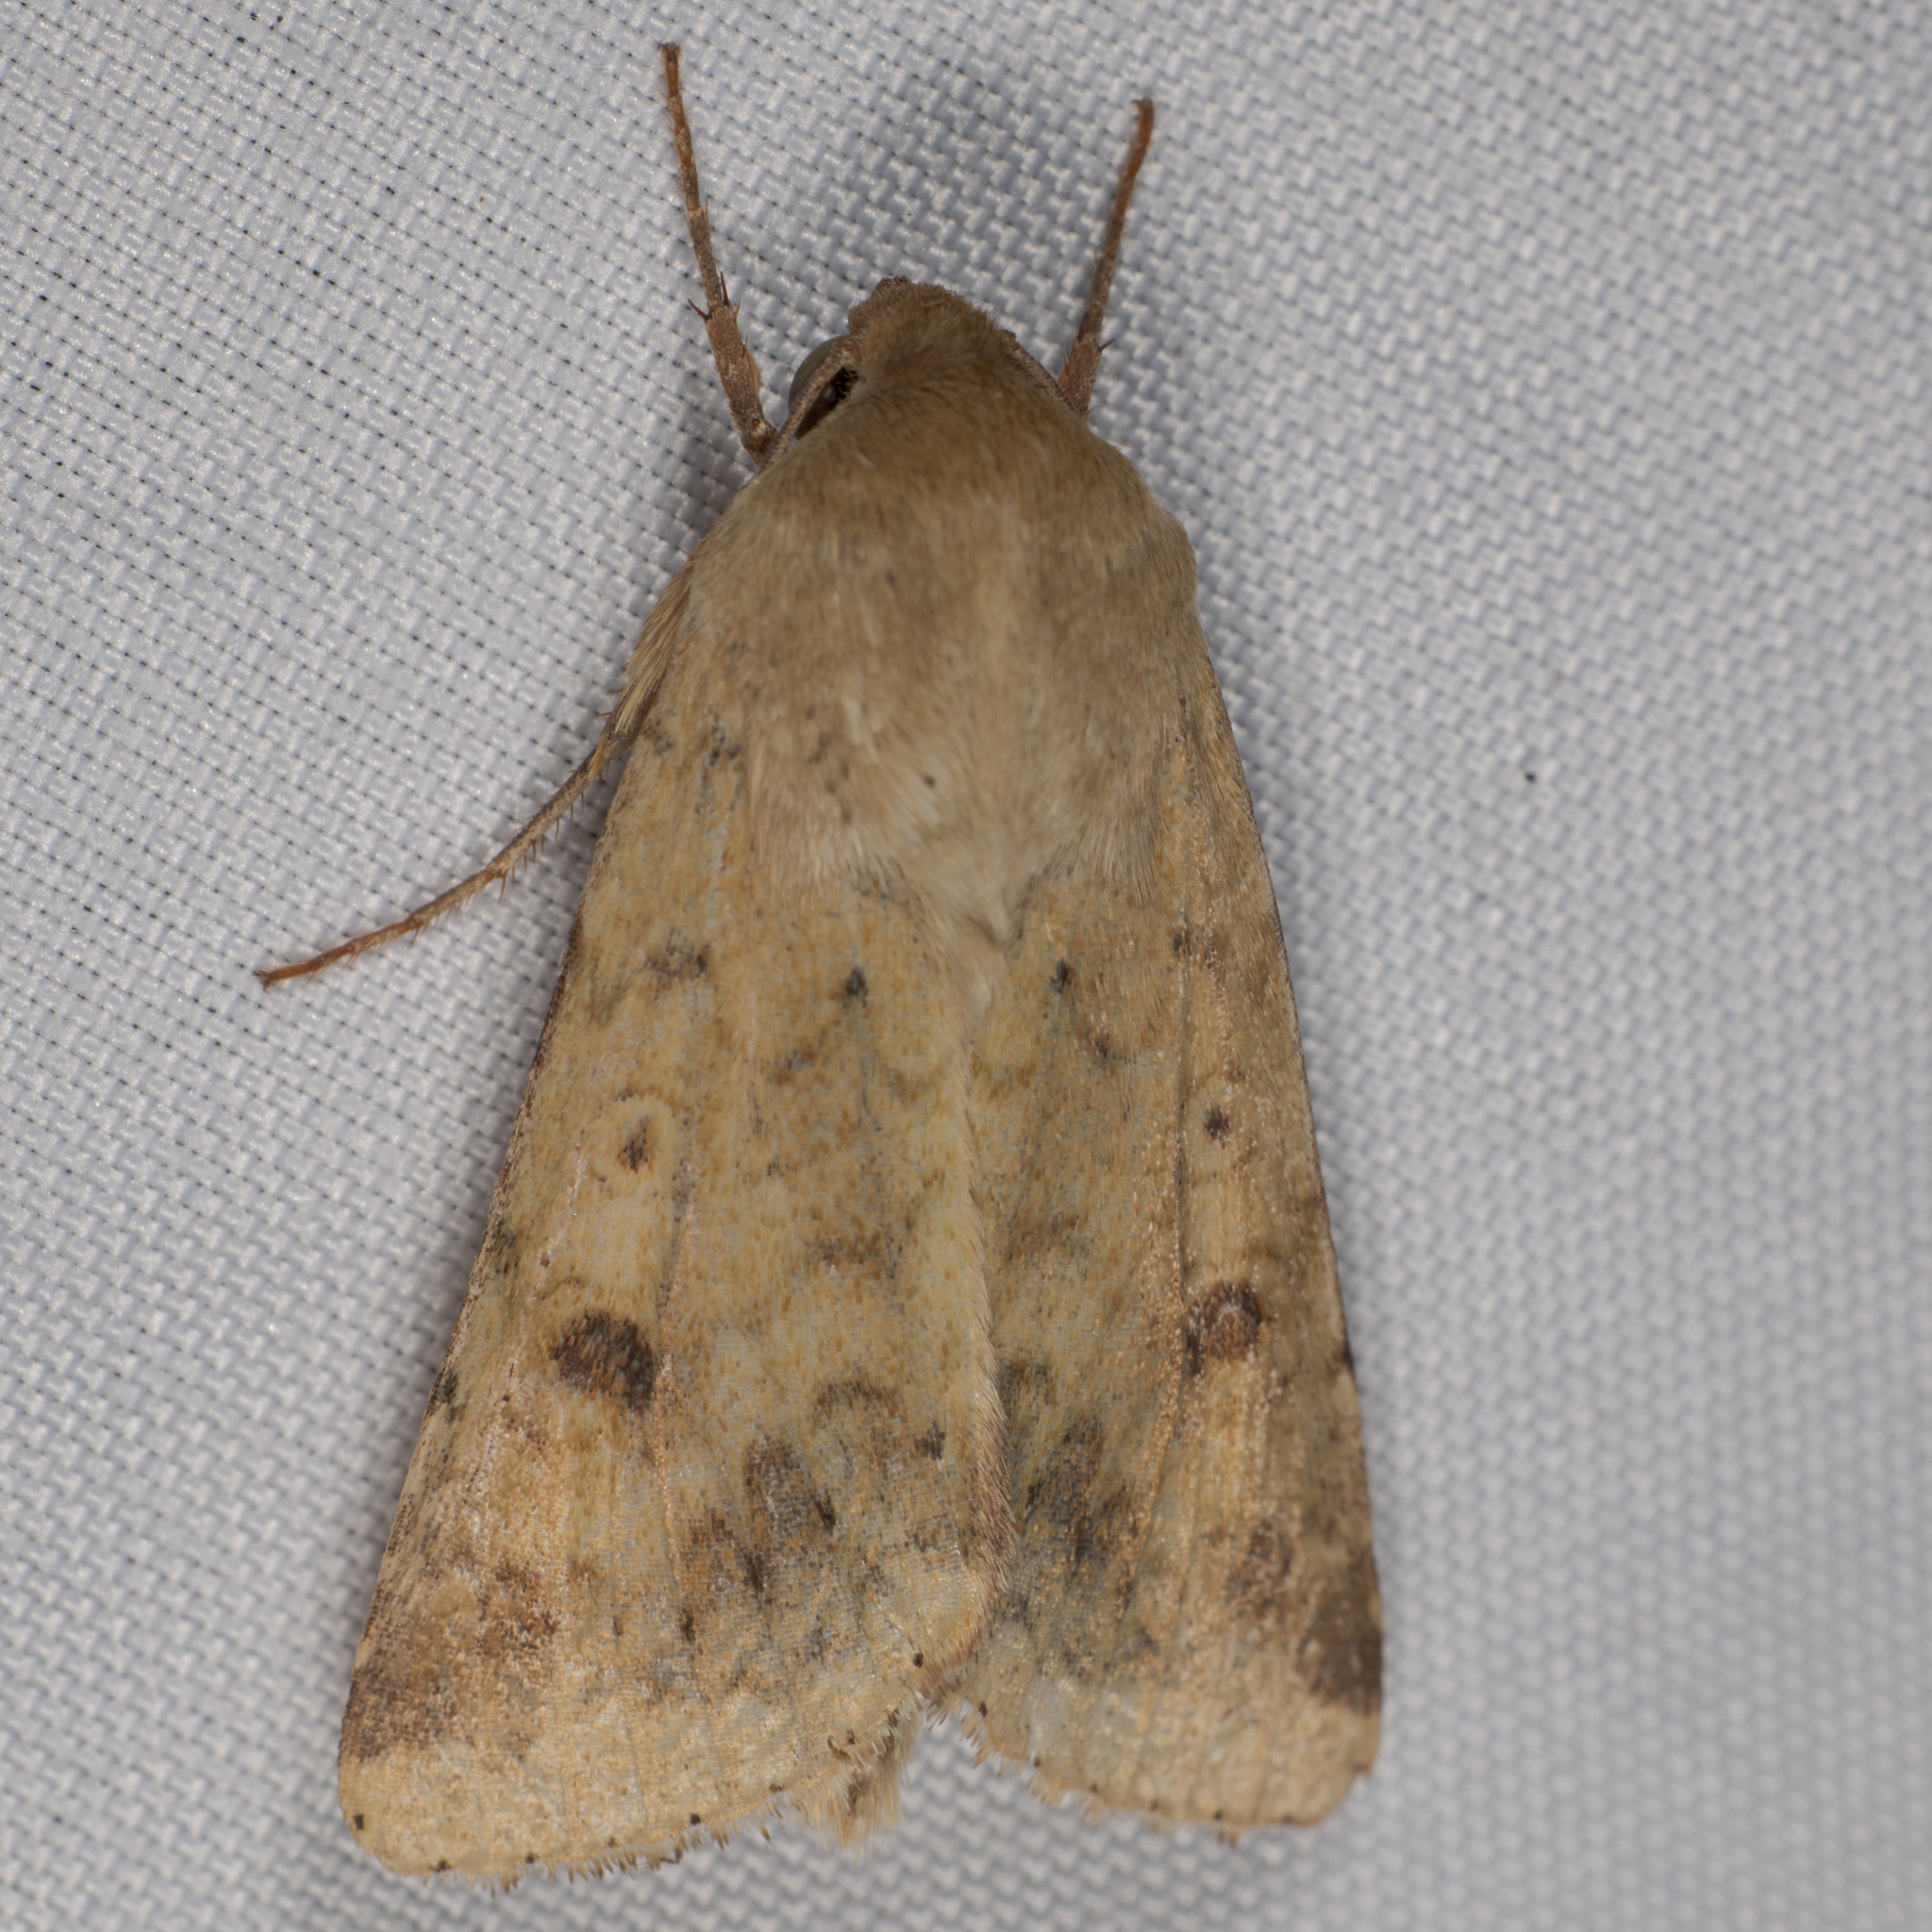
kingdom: Animalia
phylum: Arthropoda
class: Insecta
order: Lepidoptera
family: Noctuidae
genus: Helicoverpa
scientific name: Helicoverpa zea
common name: Bollworm
